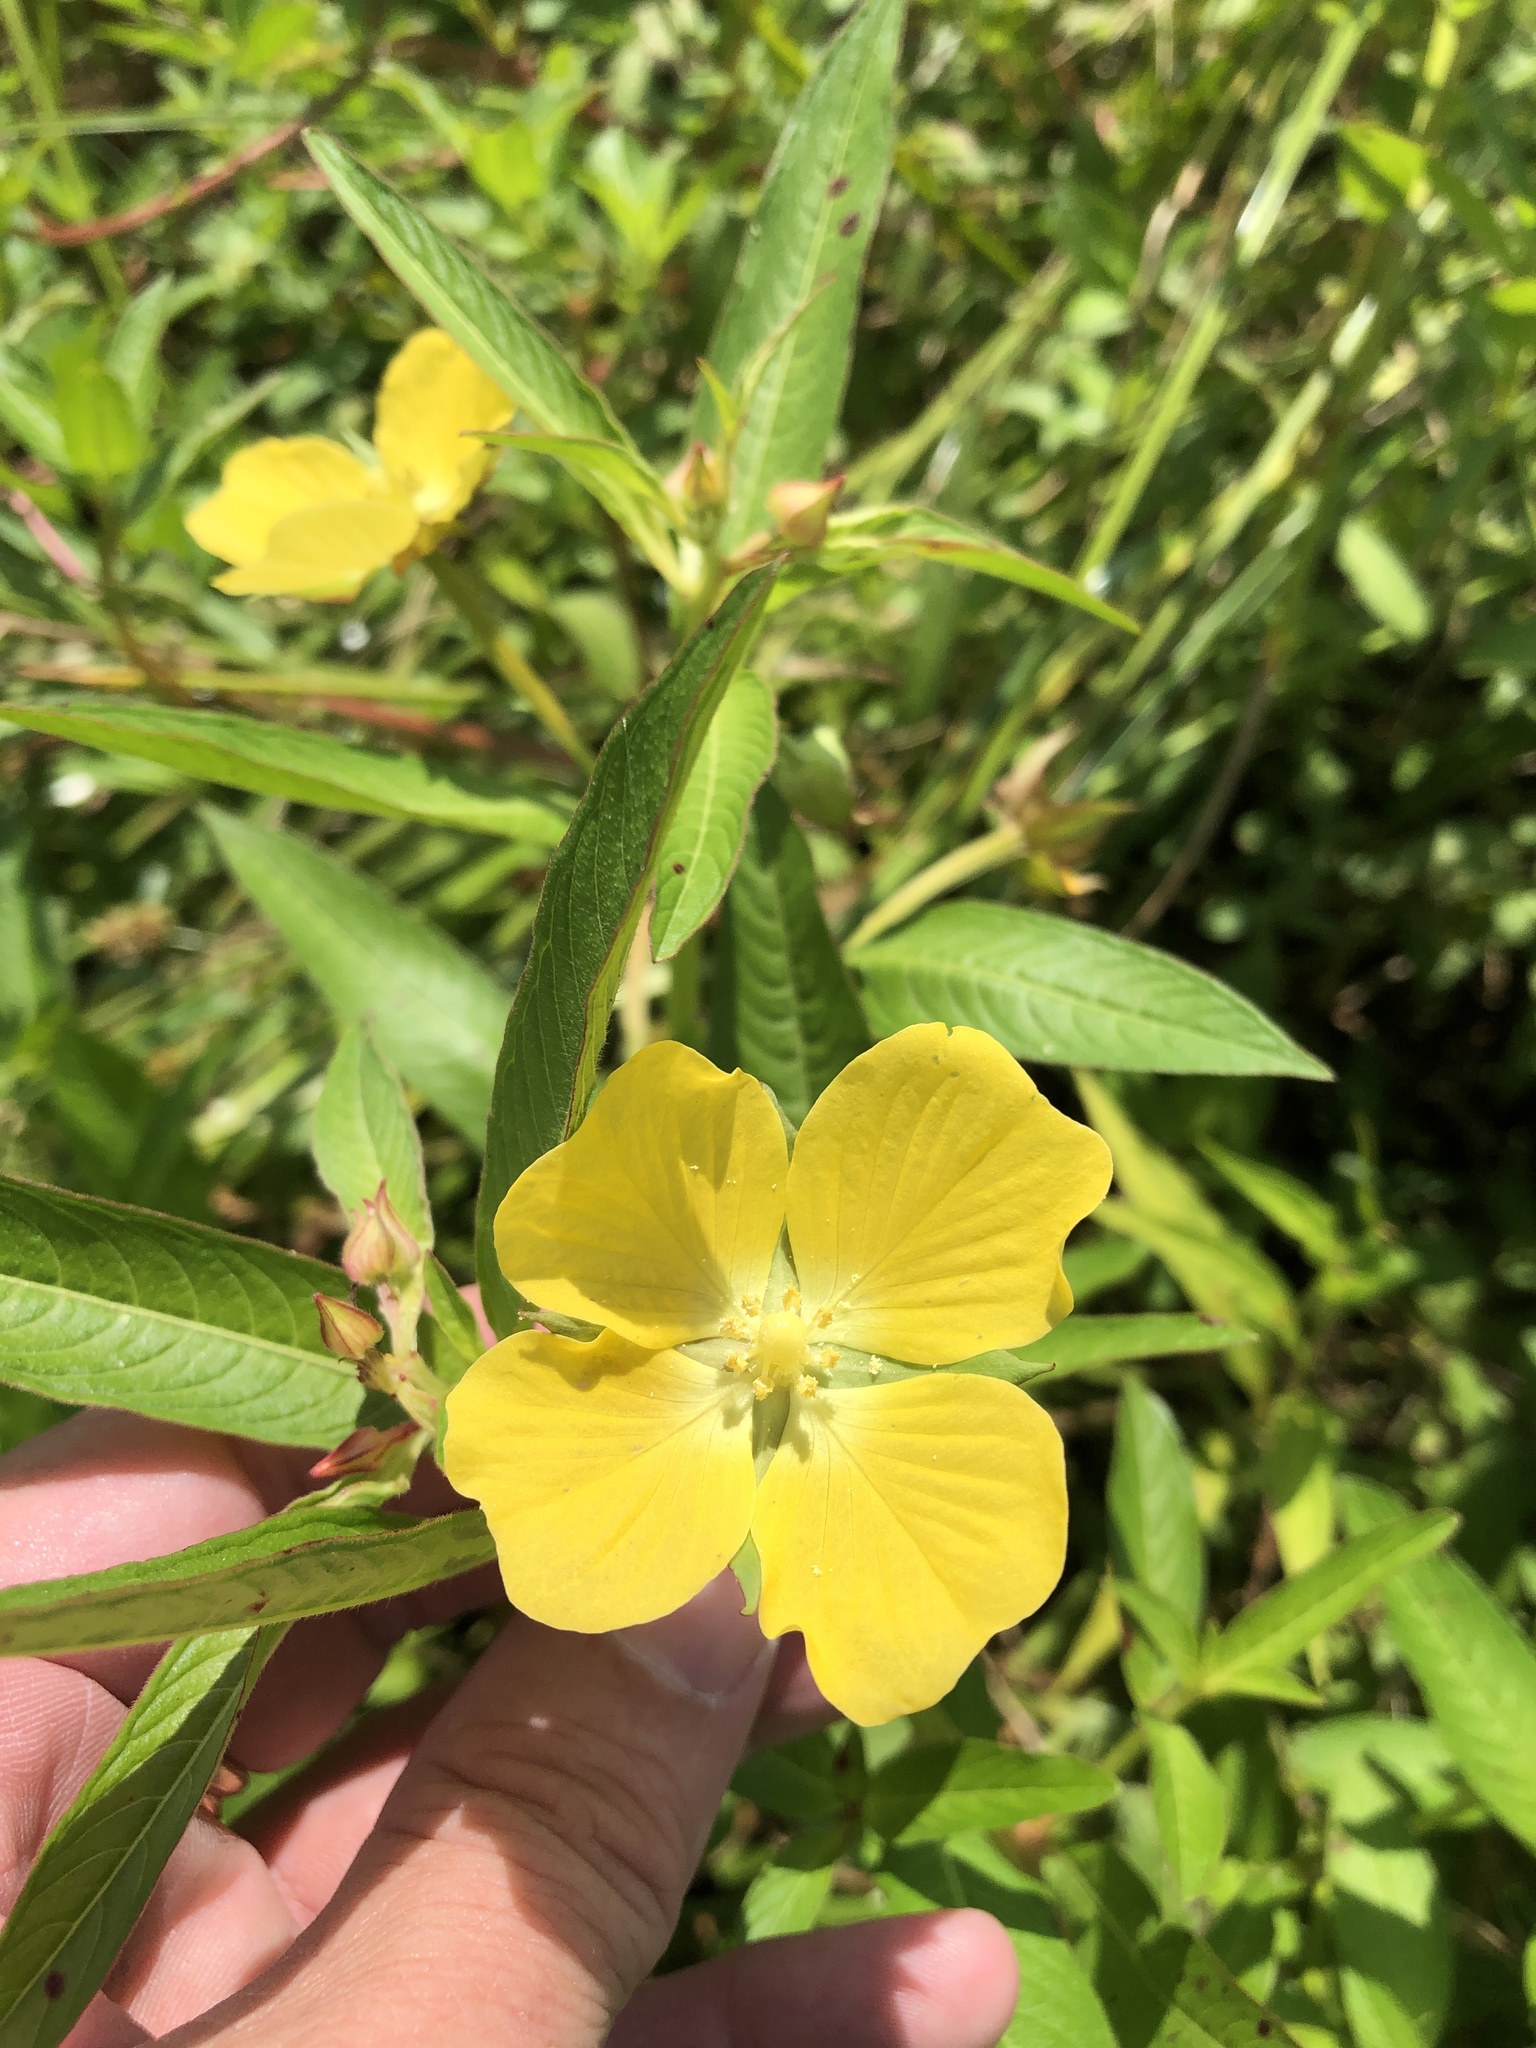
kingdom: Plantae
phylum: Tracheophyta
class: Magnoliopsida
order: Myrtales
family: Onagraceae
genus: Ludwigia
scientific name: Ludwigia octovalvis
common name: Water-primrose
